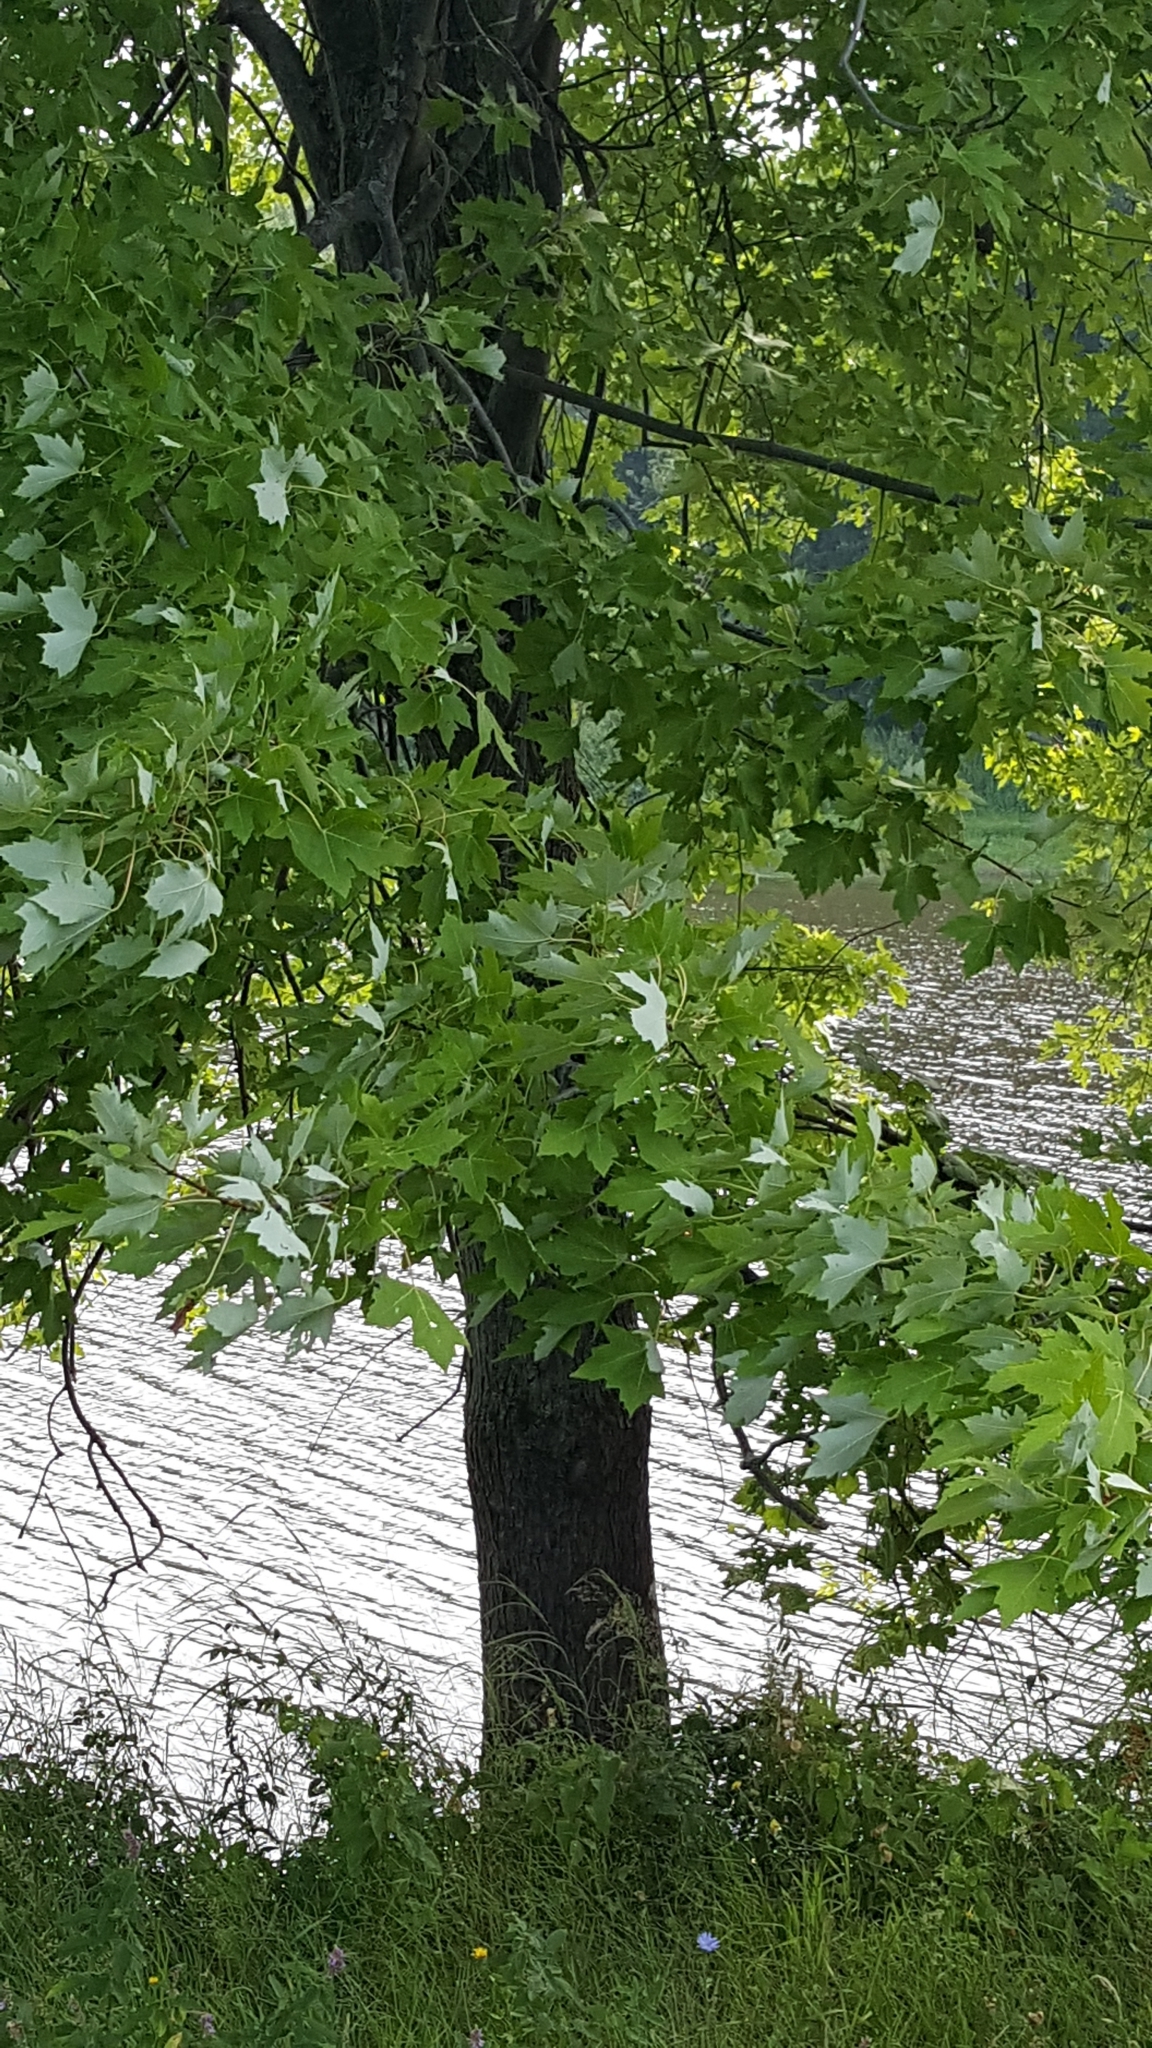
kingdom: Plantae
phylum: Tracheophyta
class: Magnoliopsida
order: Sapindales
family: Sapindaceae
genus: Acer
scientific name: Acer saccharinum
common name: Silver maple
